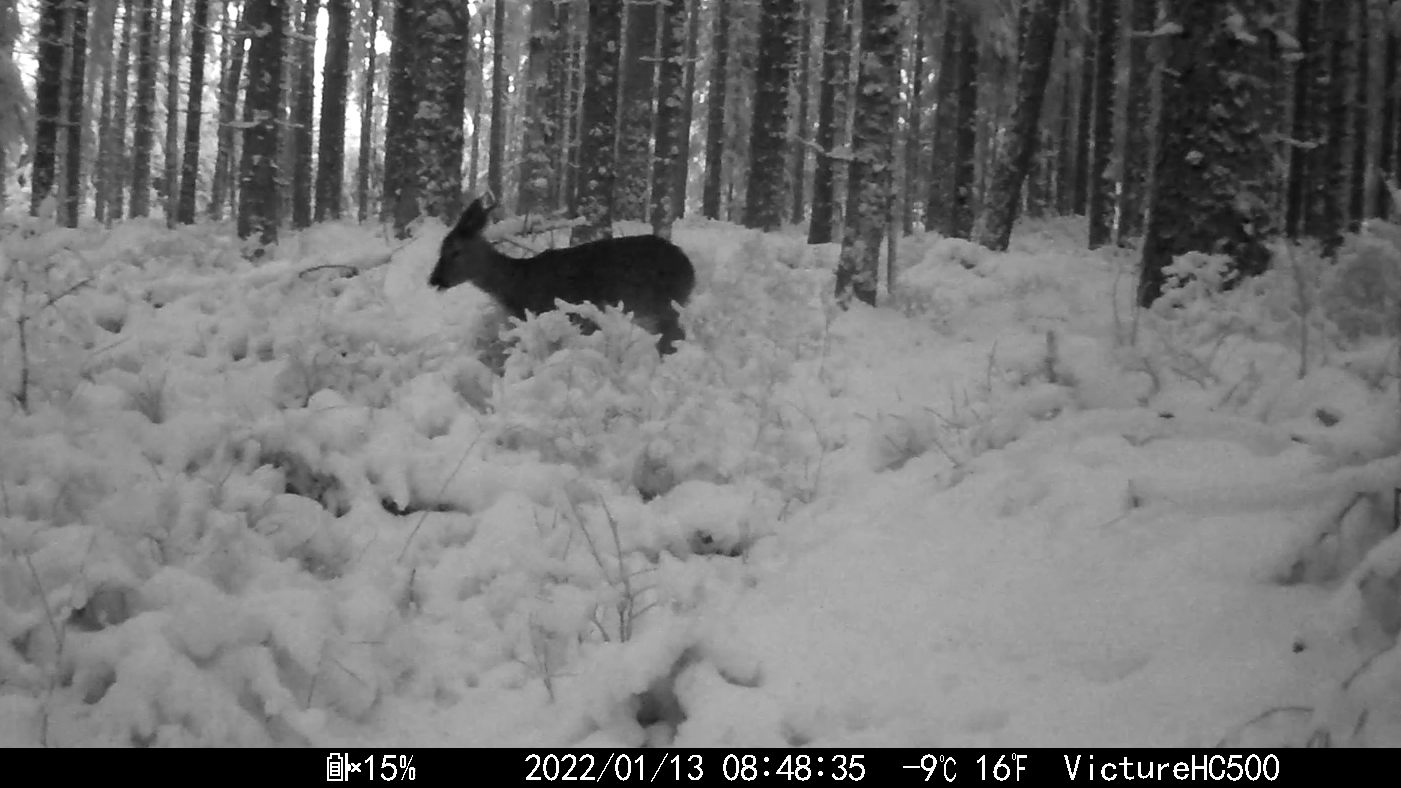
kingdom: Animalia
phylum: Chordata
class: Mammalia
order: Artiodactyla
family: Cervidae
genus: Capreolus
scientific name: Capreolus capreolus
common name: Western roe deer
